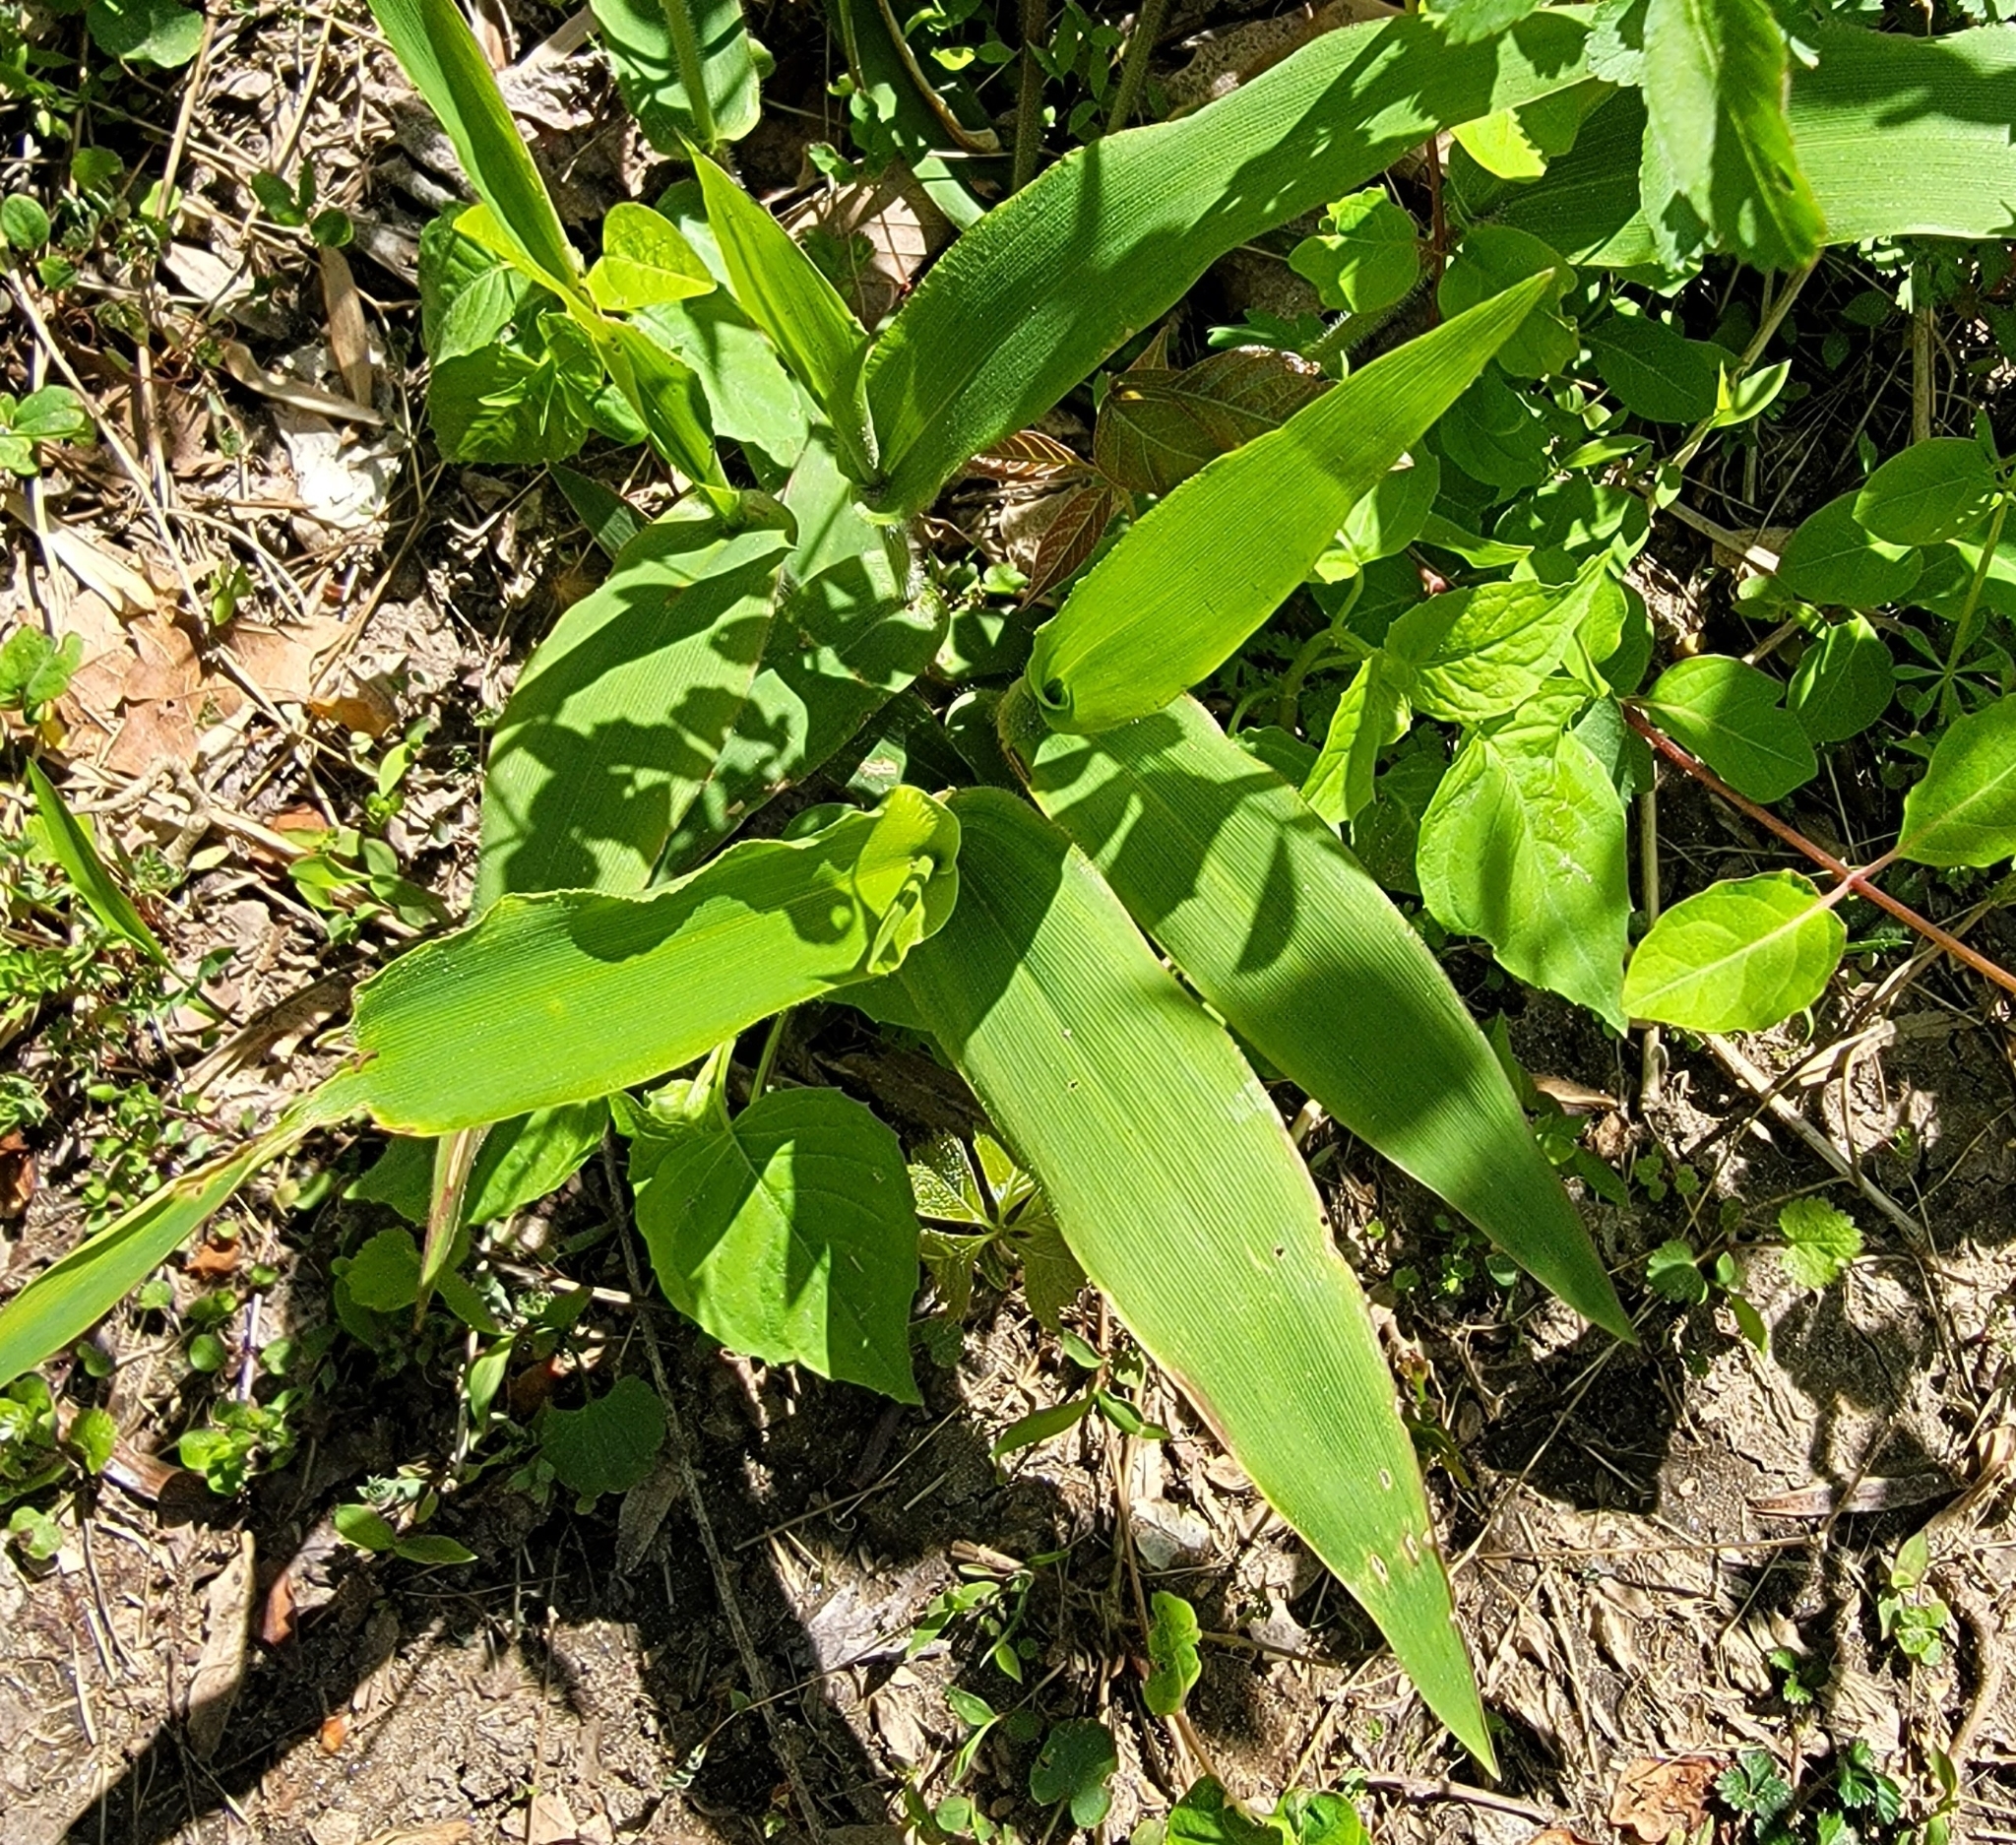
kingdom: Plantae
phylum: Tracheophyta
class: Liliopsida
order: Poales
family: Poaceae
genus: Dichanthelium
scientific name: Dichanthelium clandestinum
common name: Deer-tongue grass
